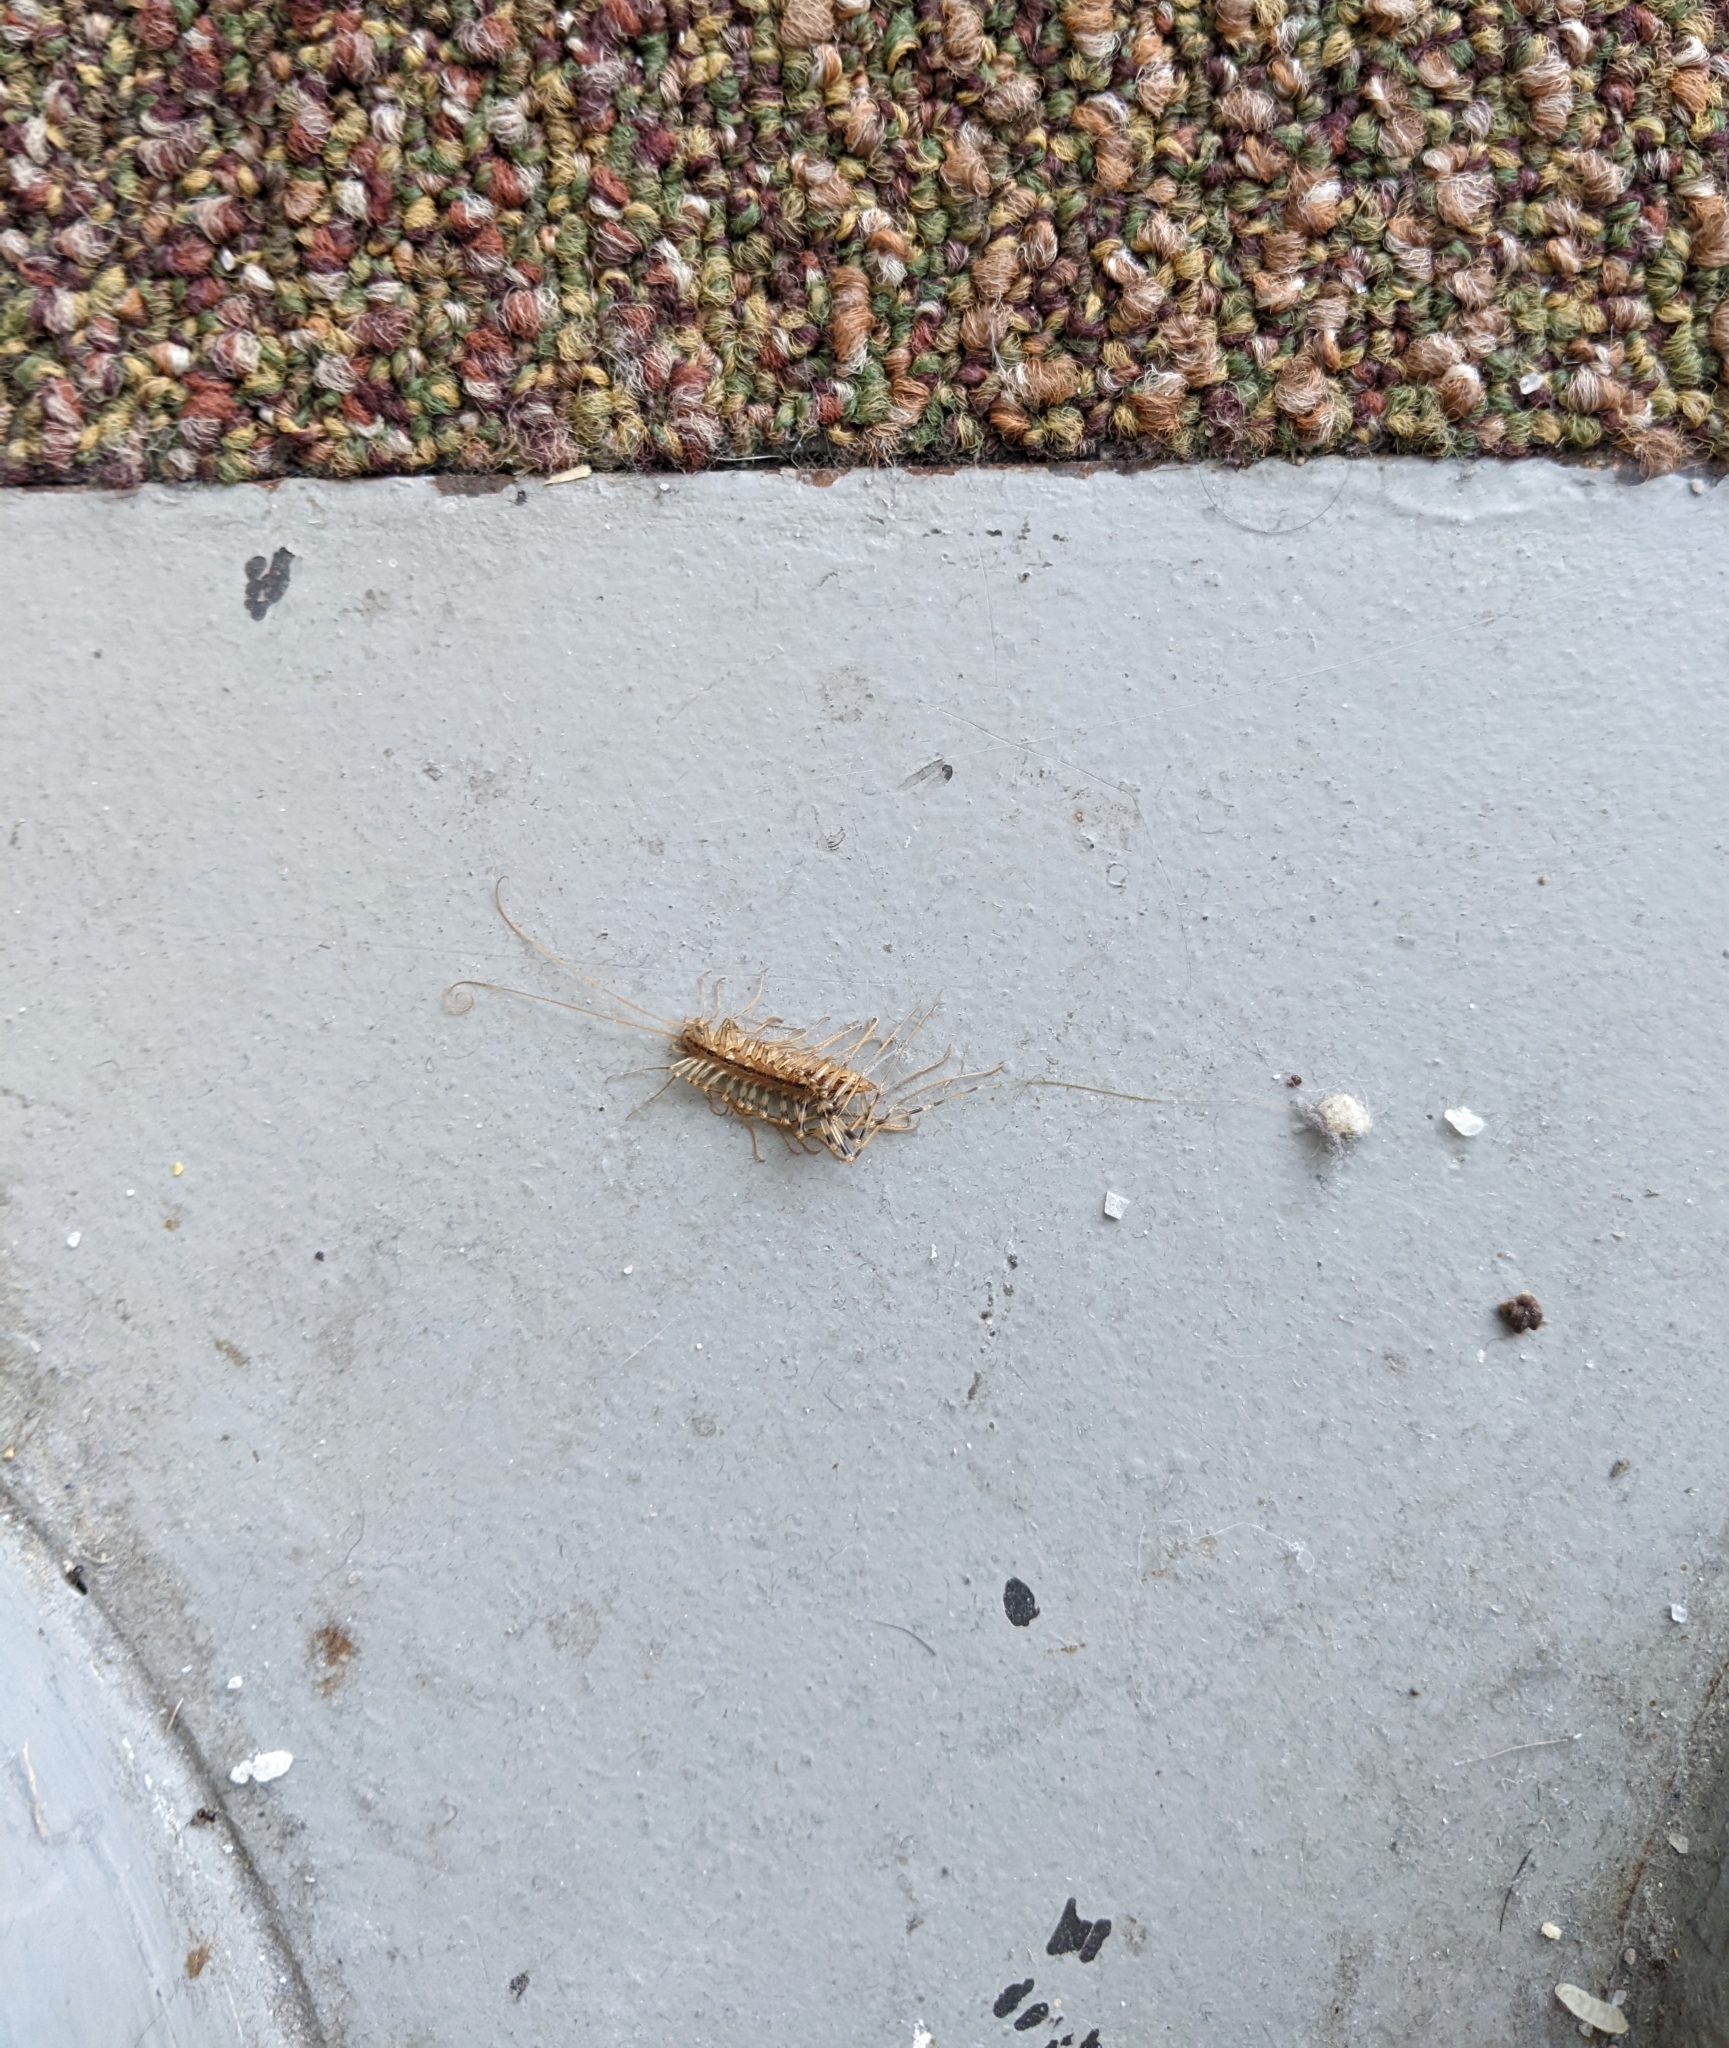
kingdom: Animalia
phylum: Arthropoda
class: Chilopoda
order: Scutigeromorpha
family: Scutigeridae
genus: Scutigera
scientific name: Scutigera coleoptrata
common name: House centipede
